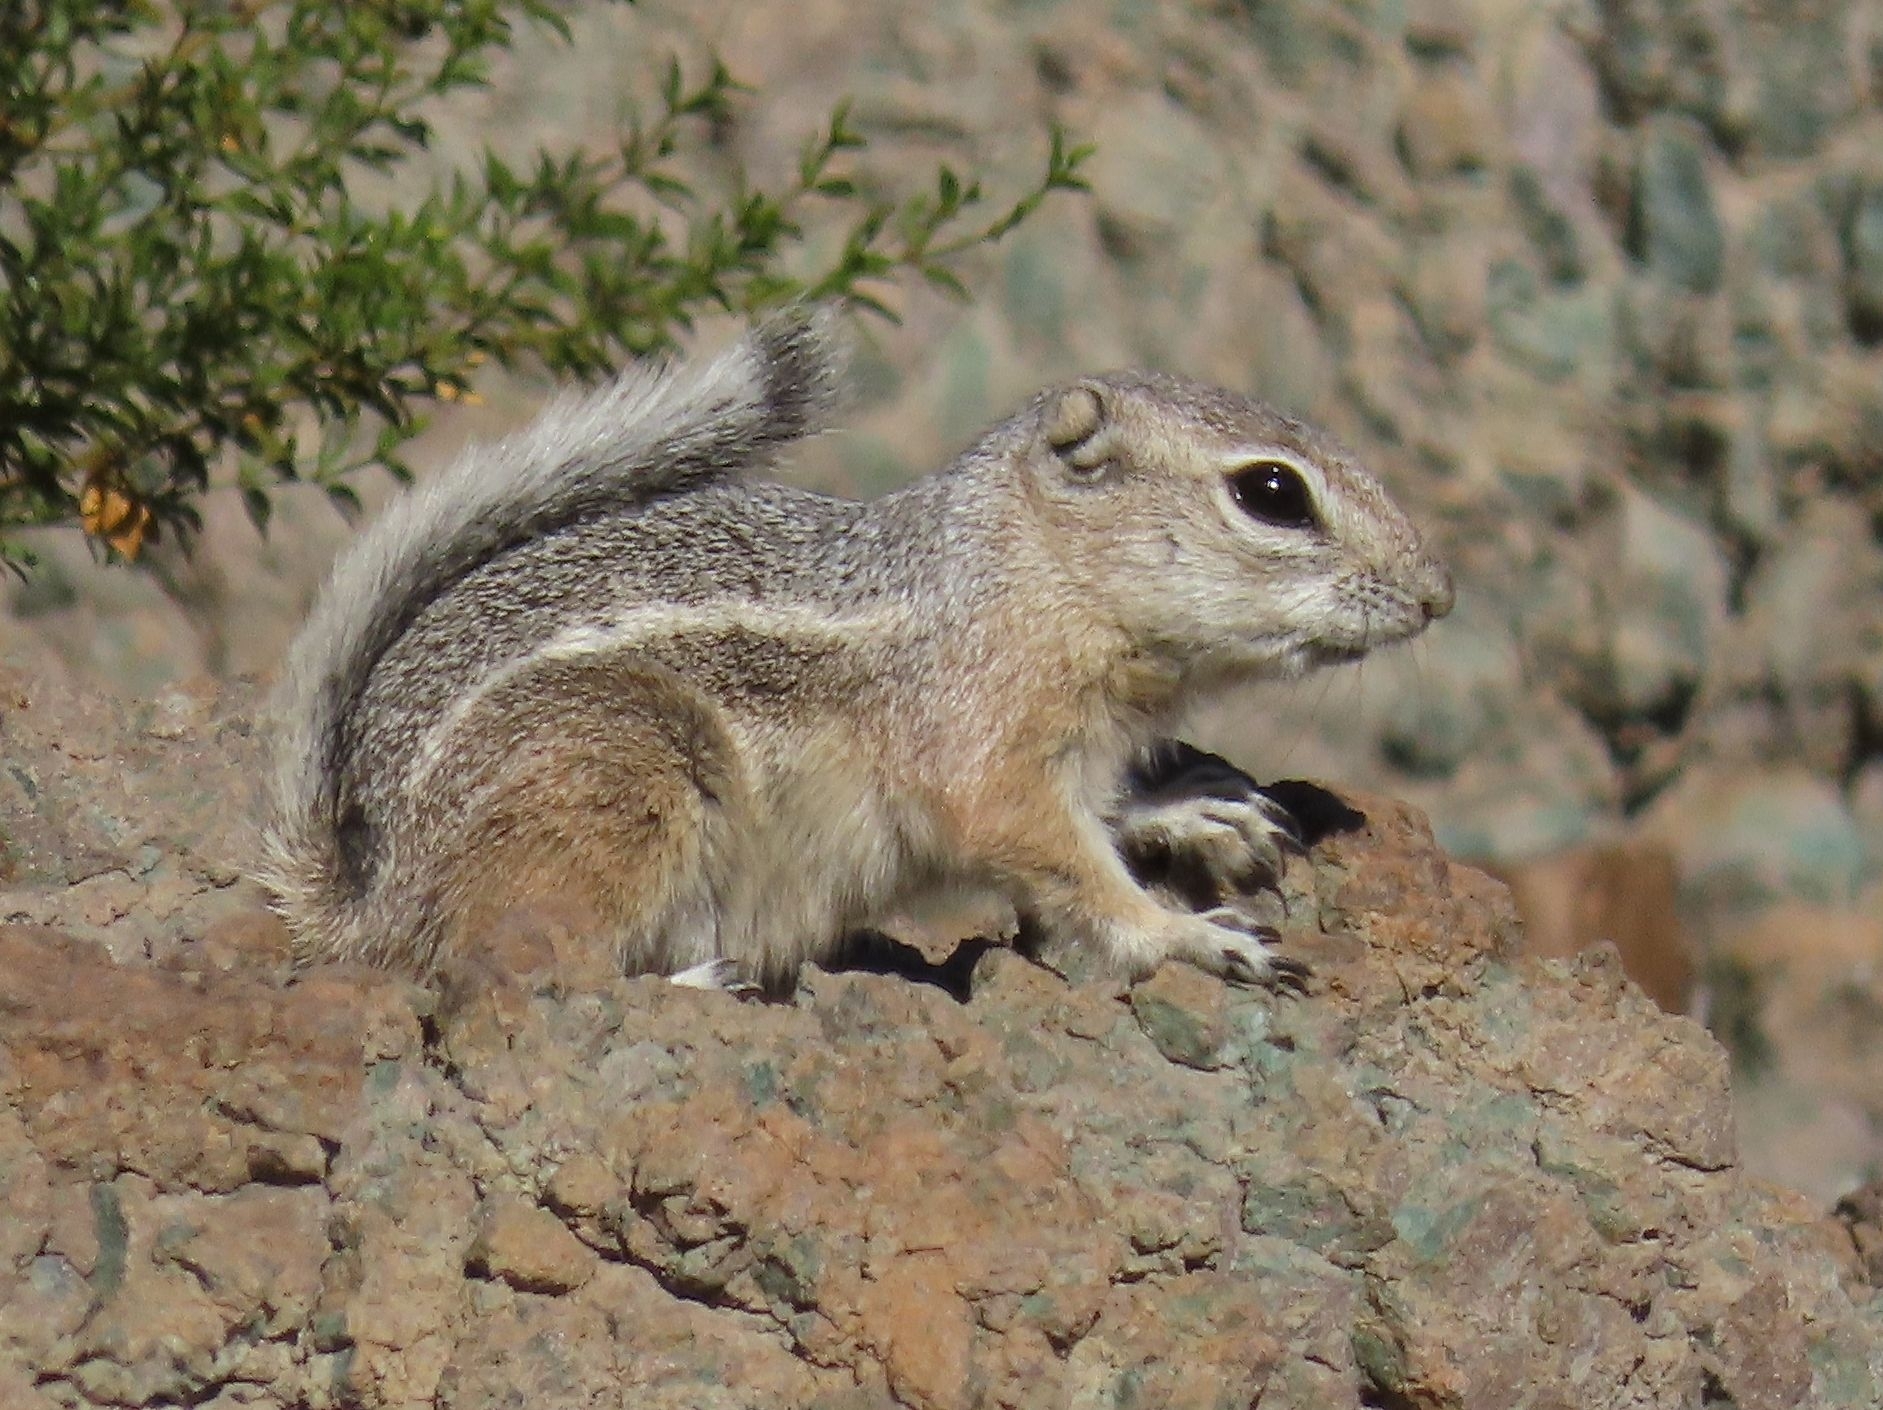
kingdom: Animalia
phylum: Chordata
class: Mammalia
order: Rodentia
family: Sciuridae
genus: Ammospermophilus
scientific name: Ammospermophilus leucurus
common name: White-tailed antelope squirrel
